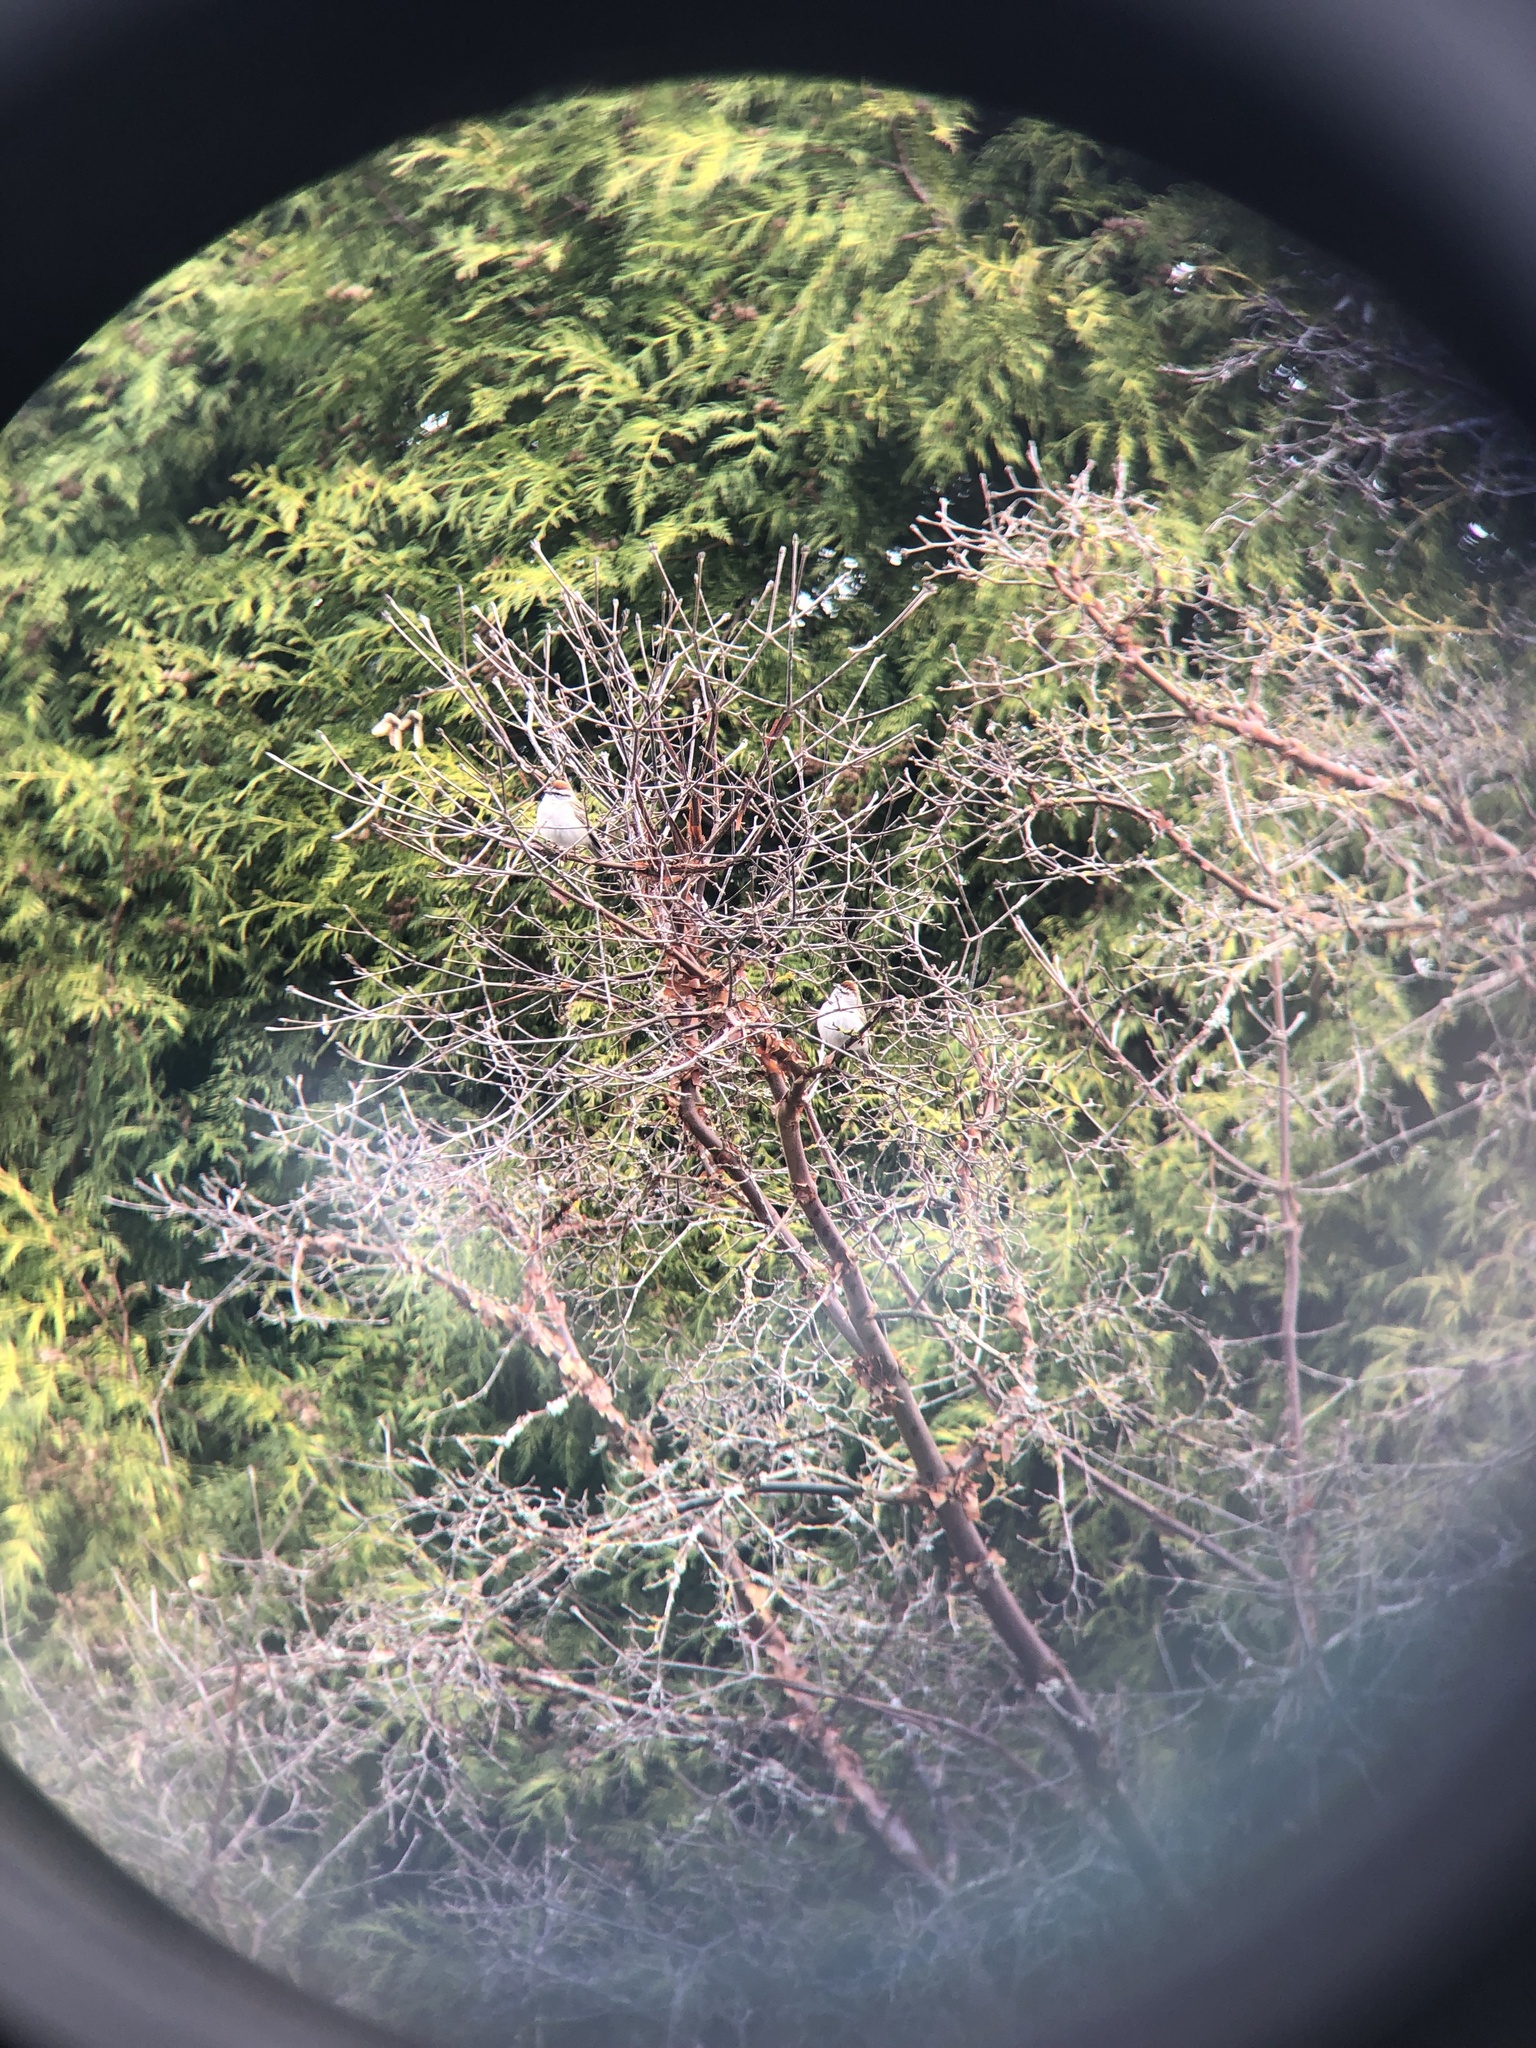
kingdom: Animalia
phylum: Chordata
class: Aves
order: Passeriformes
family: Passerellidae
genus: Spizella
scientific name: Spizella passerina
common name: Chipping sparrow
